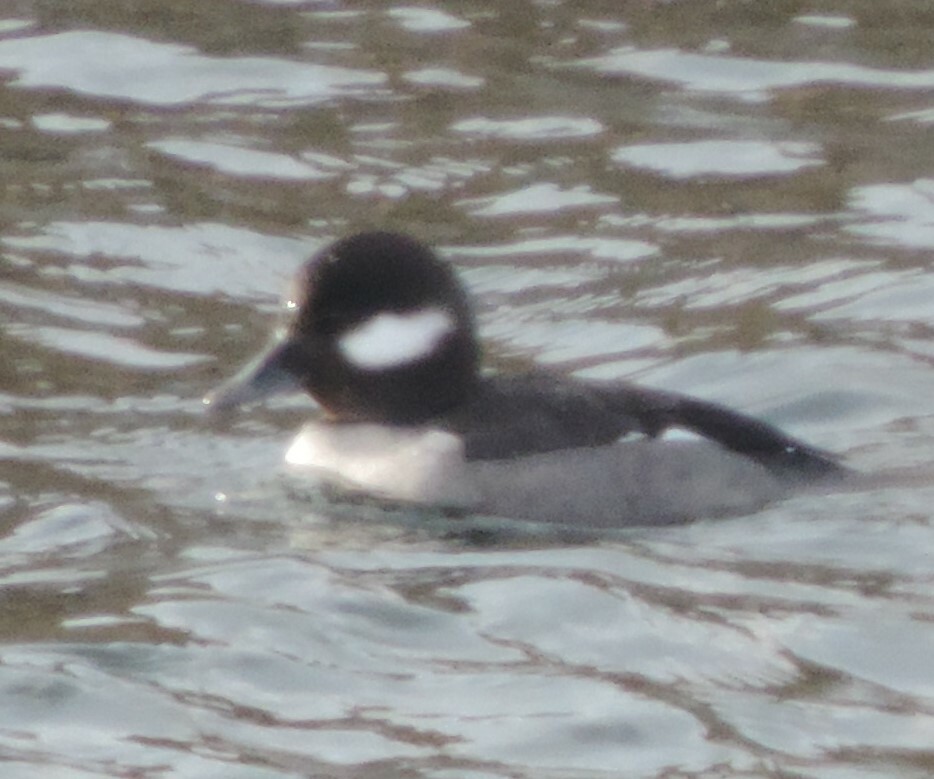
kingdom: Animalia
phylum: Chordata
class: Aves
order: Anseriformes
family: Anatidae
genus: Bucephala
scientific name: Bucephala albeola
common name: Bufflehead
